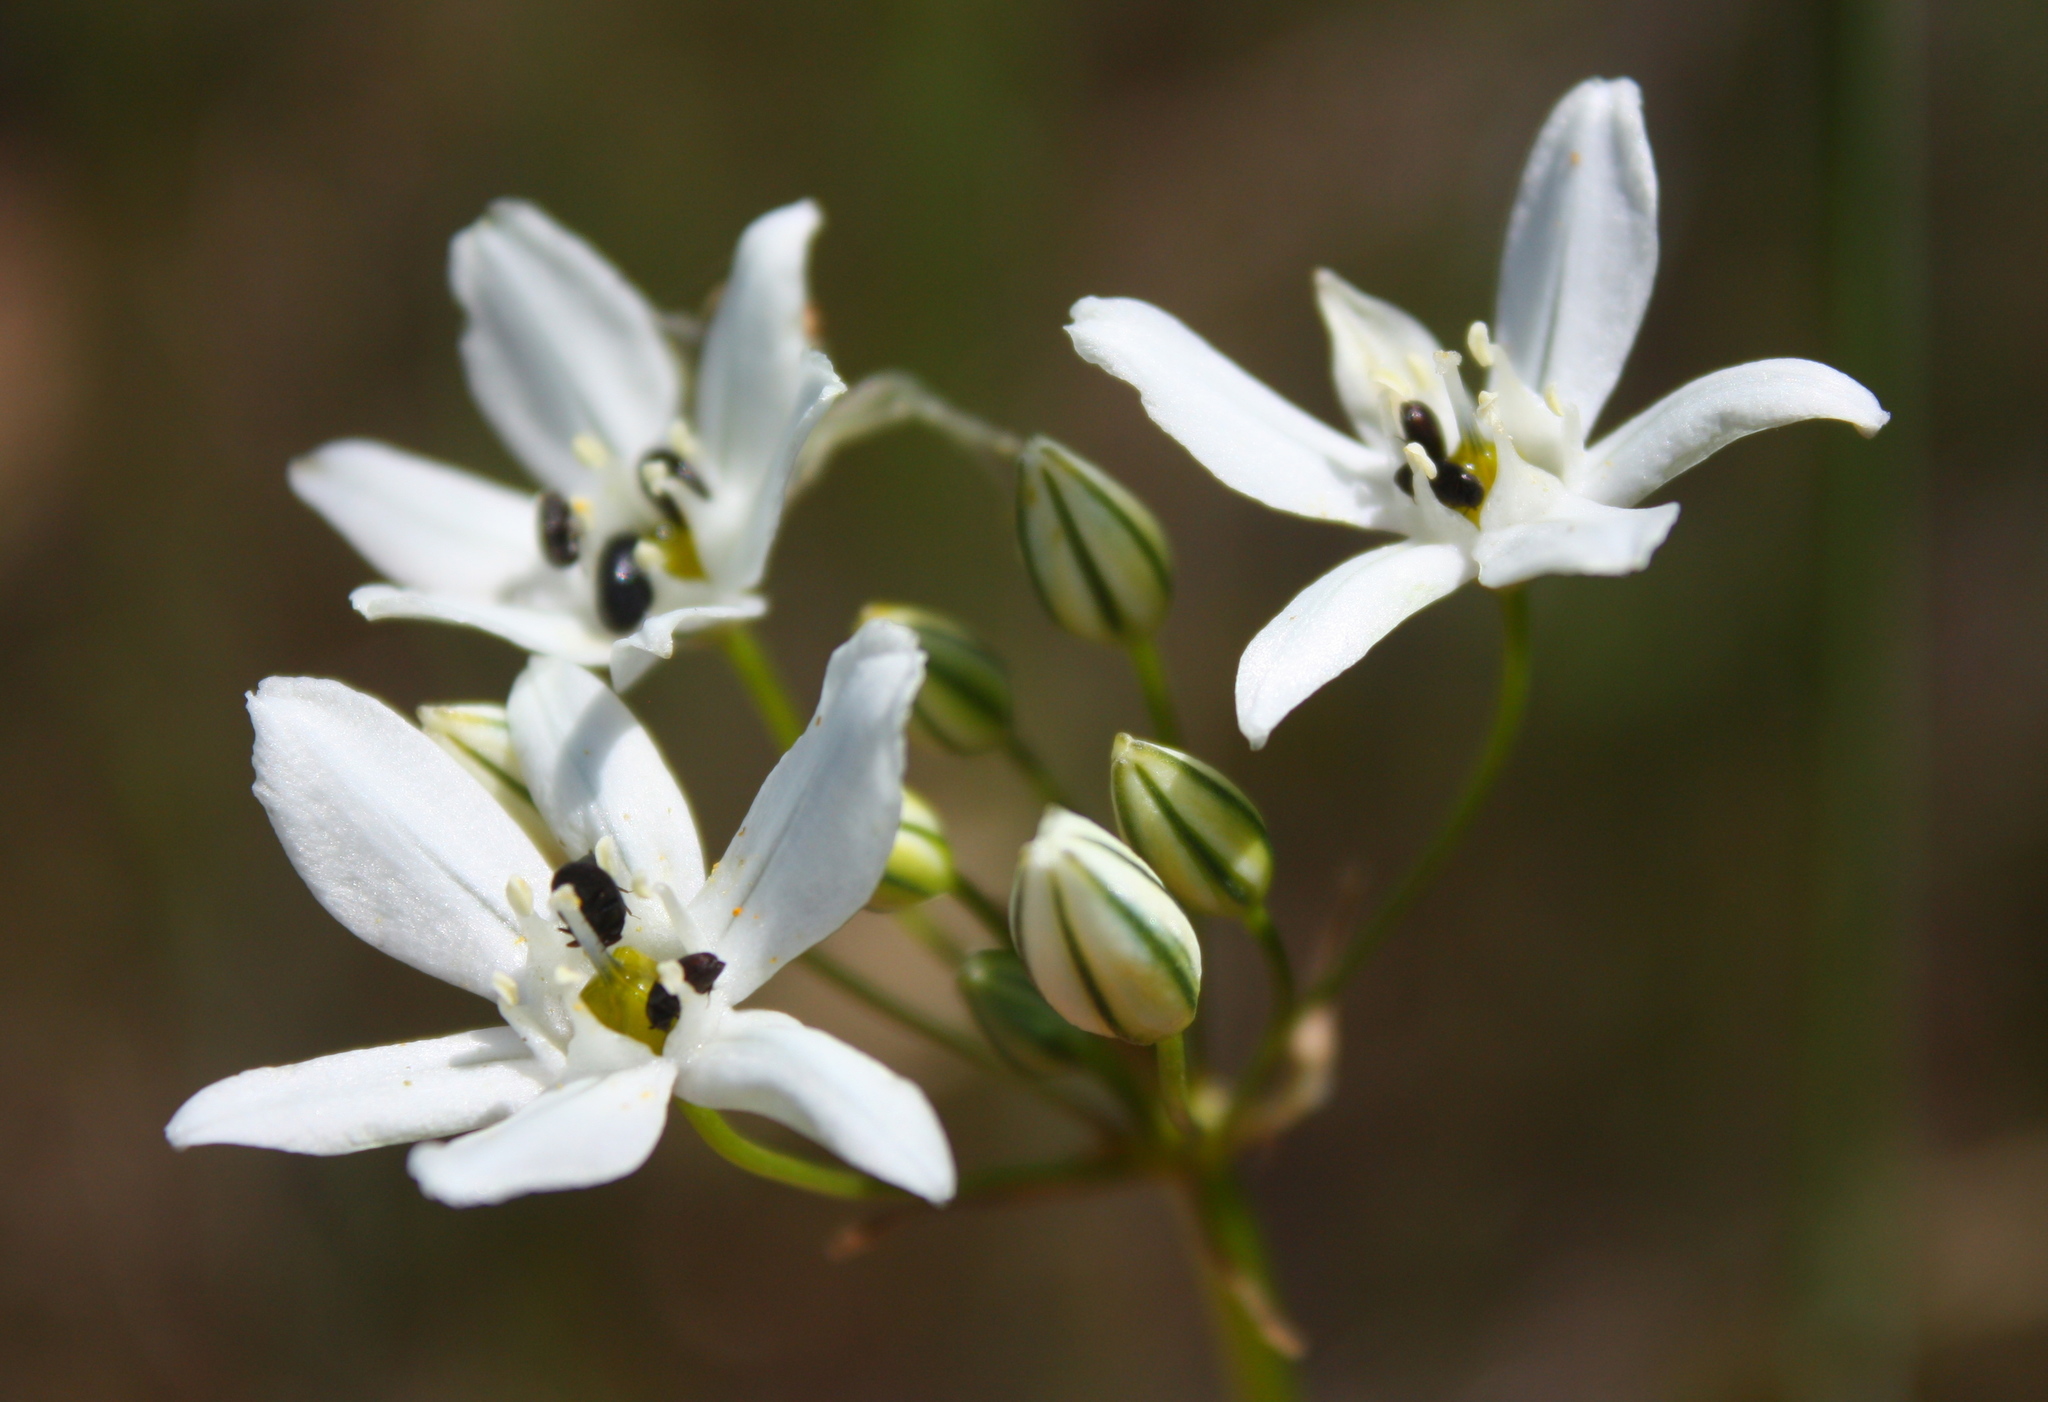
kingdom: Plantae
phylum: Tracheophyta
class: Liliopsida
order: Asparagales
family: Asparagaceae
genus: Triteleia
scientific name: Triteleia hyacinthina
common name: White brodiaea
